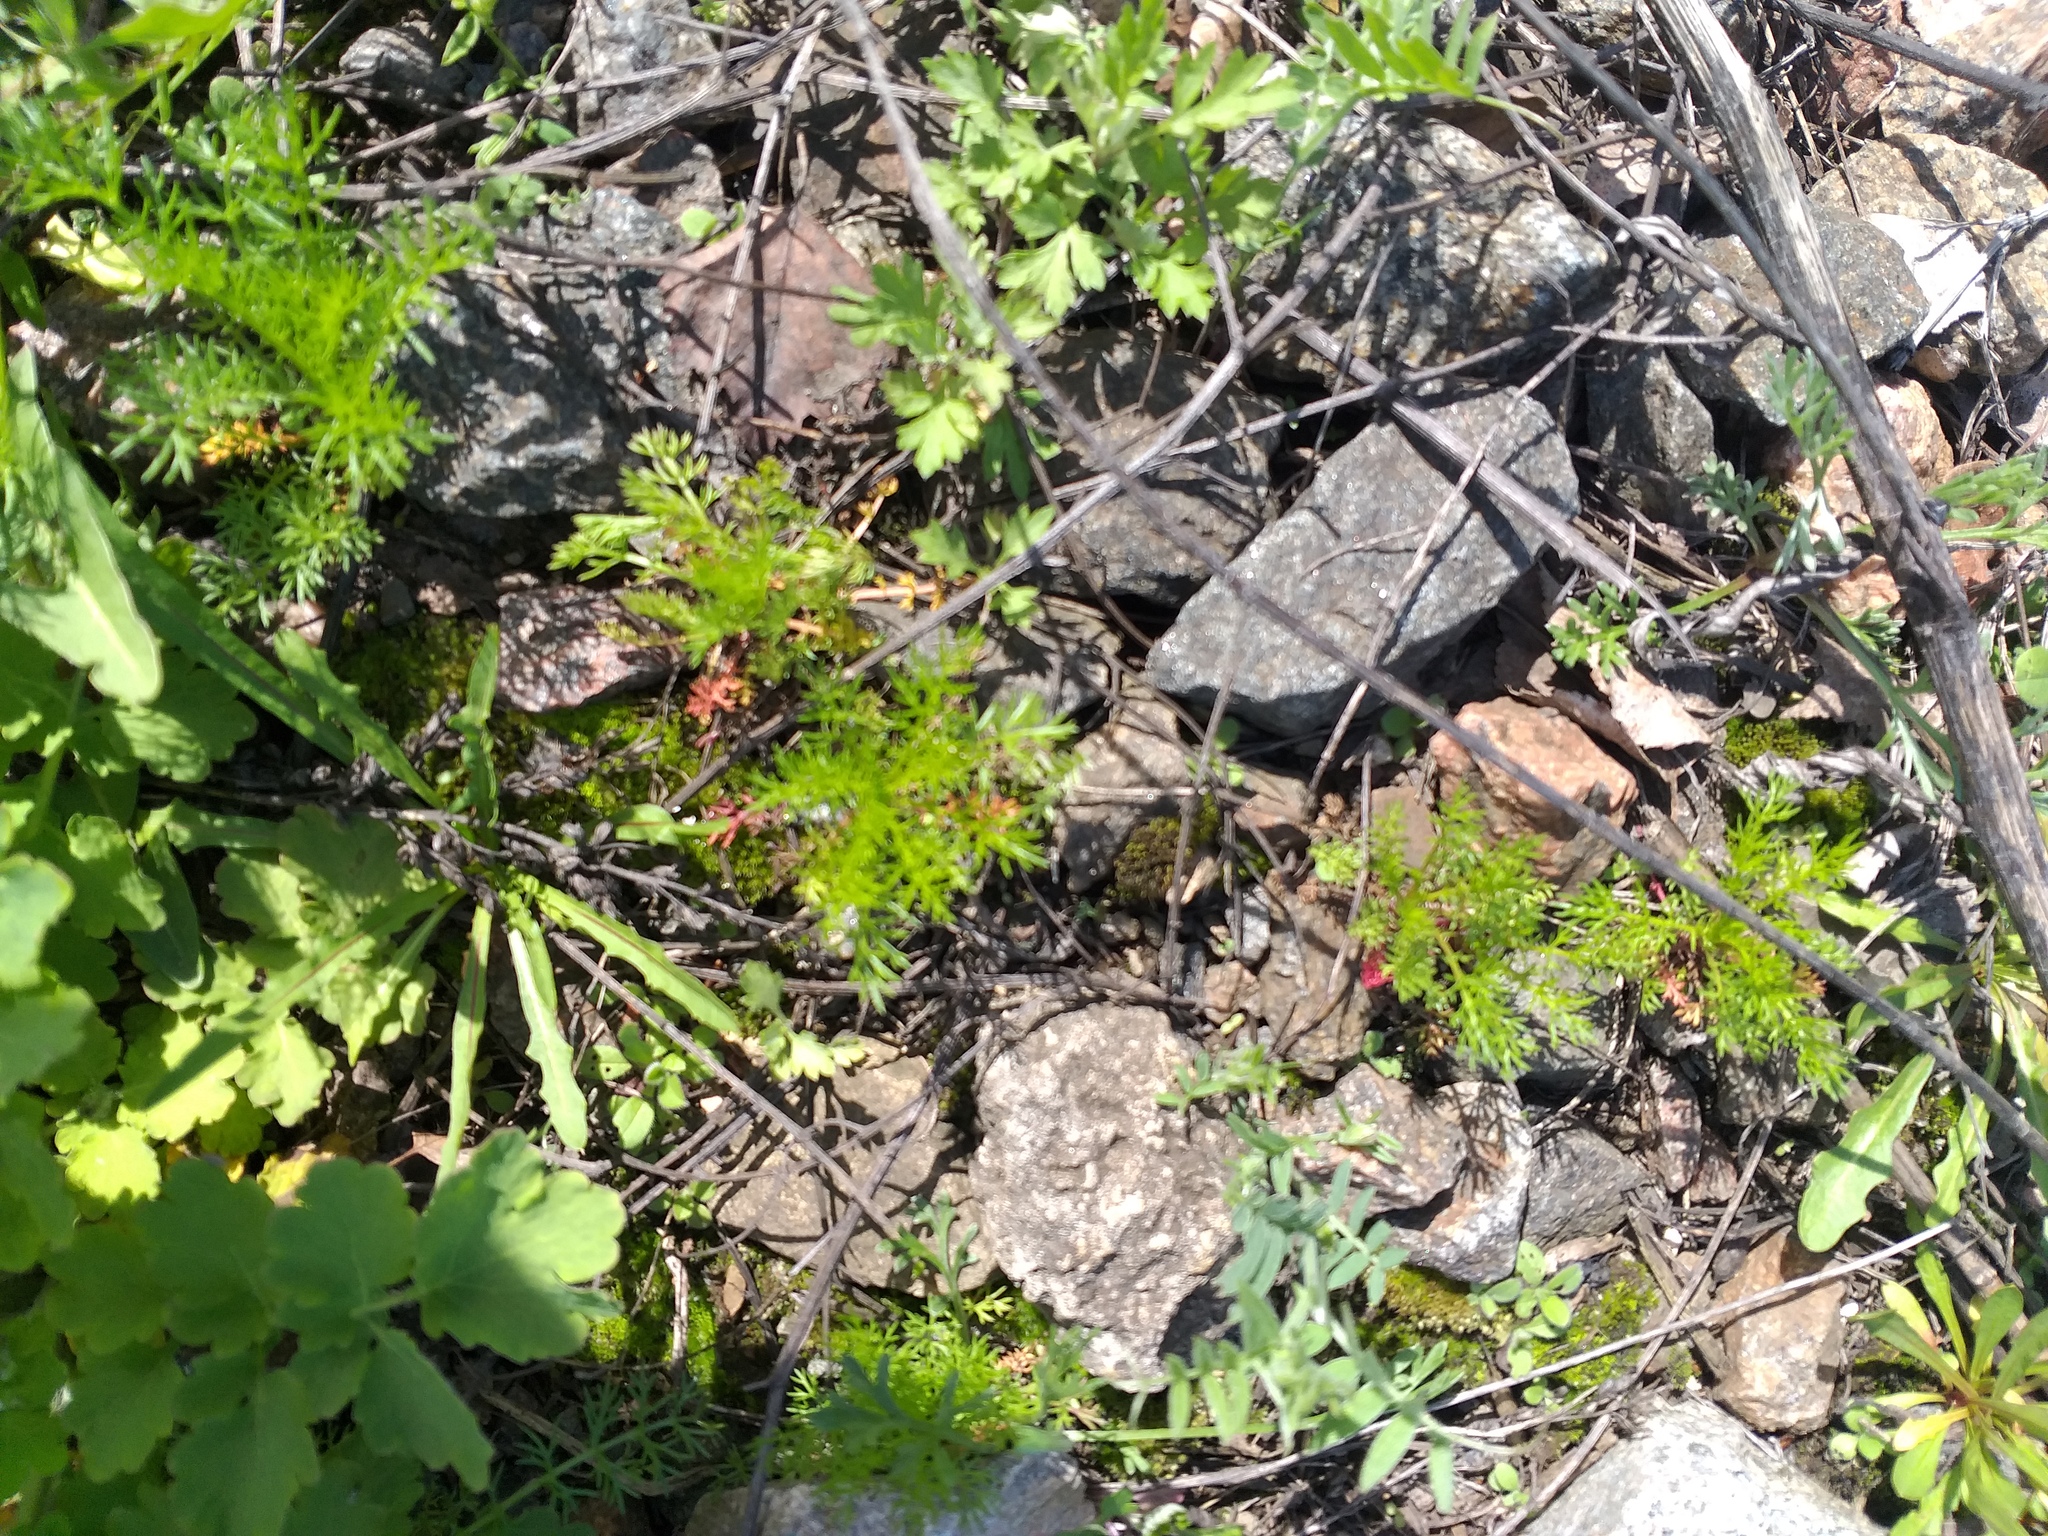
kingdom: Plantae
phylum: Tracheophyta
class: Magnoliopsida
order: Asterales
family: Asteraceae
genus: Tripleurospermum
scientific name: Tripleurospermum inodorum
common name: Scentless mayweed
